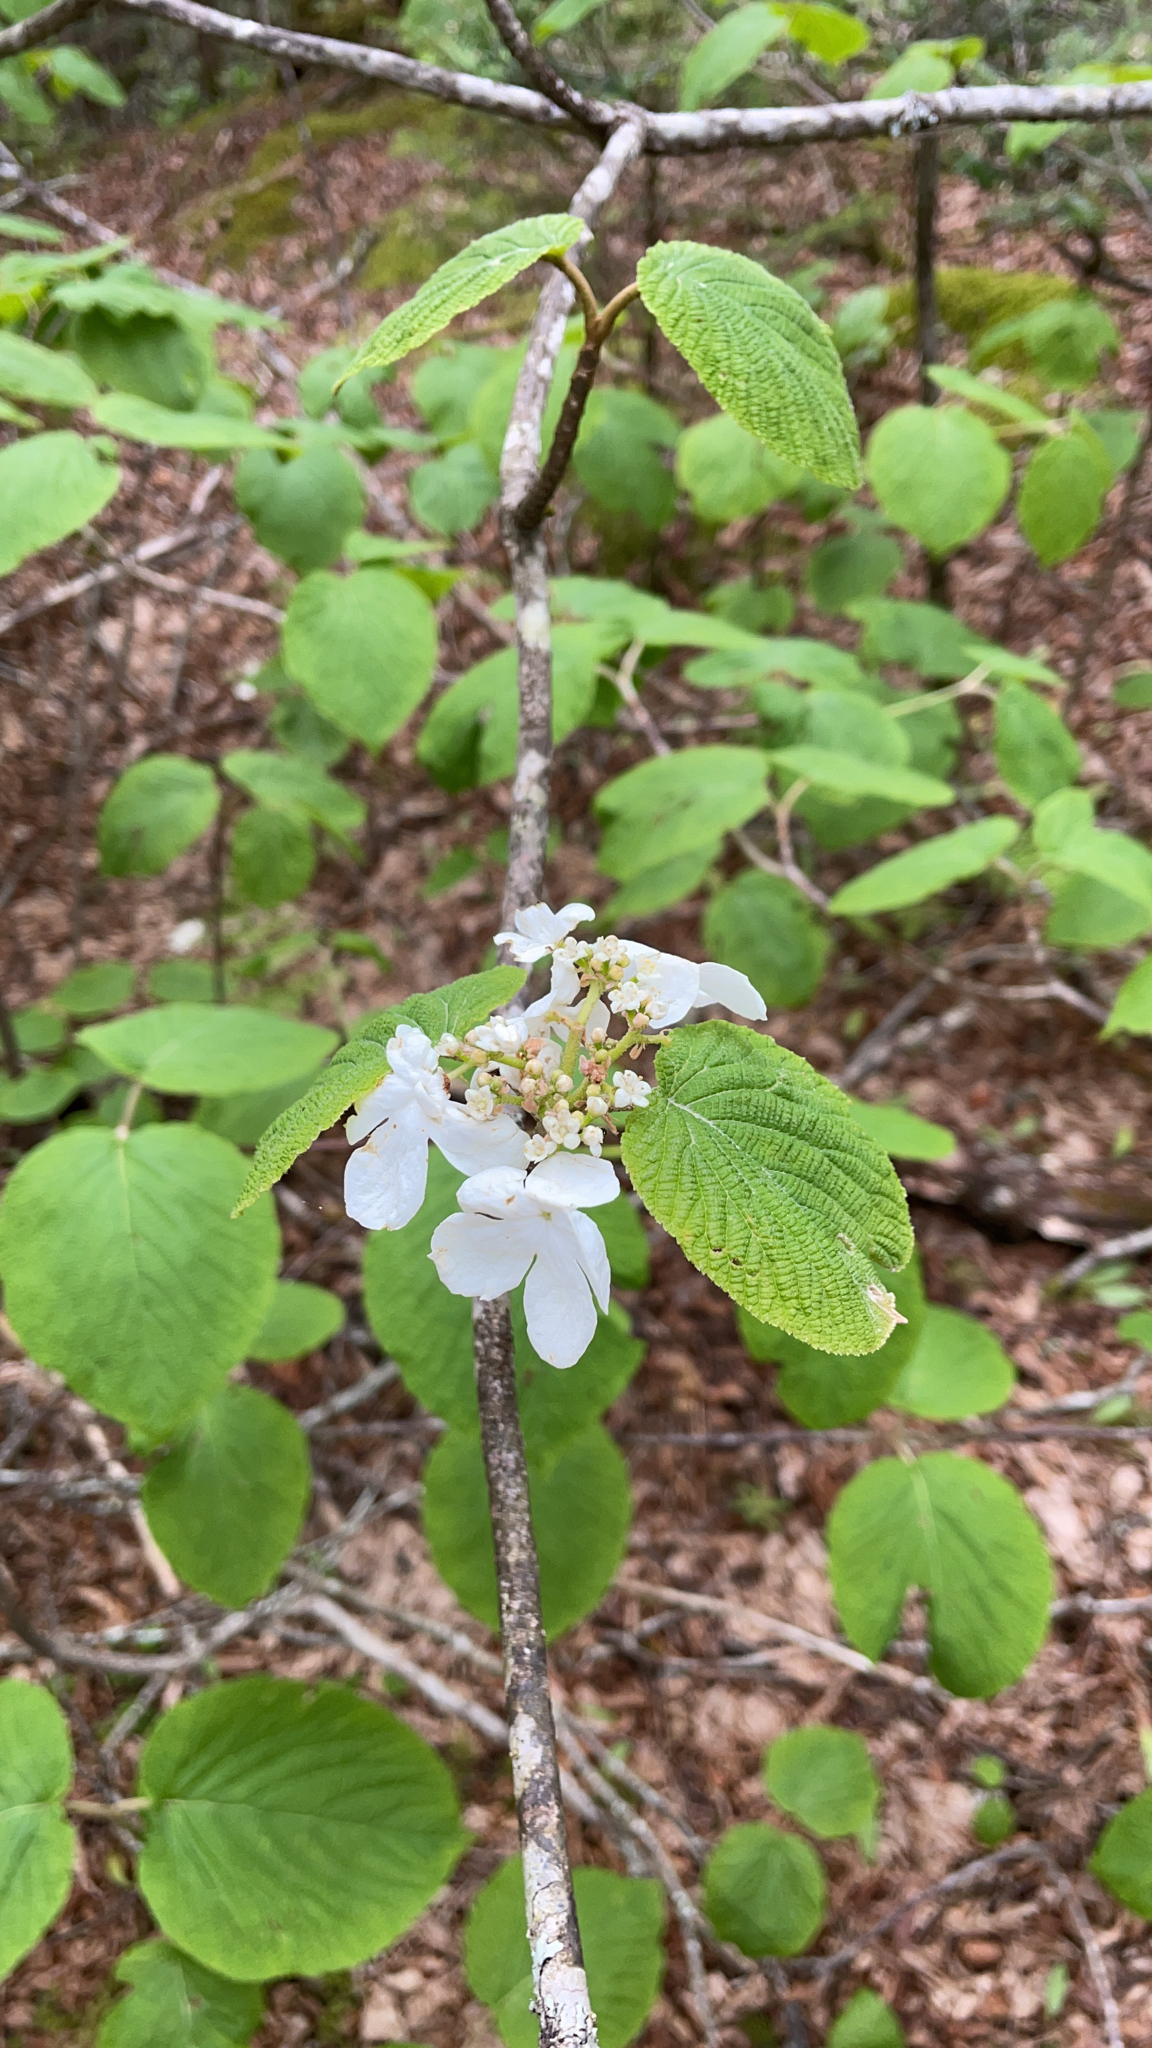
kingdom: Plantae
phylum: Tracheophyta
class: Magnoliopsida
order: Dipsacales
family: Viburnaceae
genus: Viburnum
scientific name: Viburnum lantanoides
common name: Hobblebush
